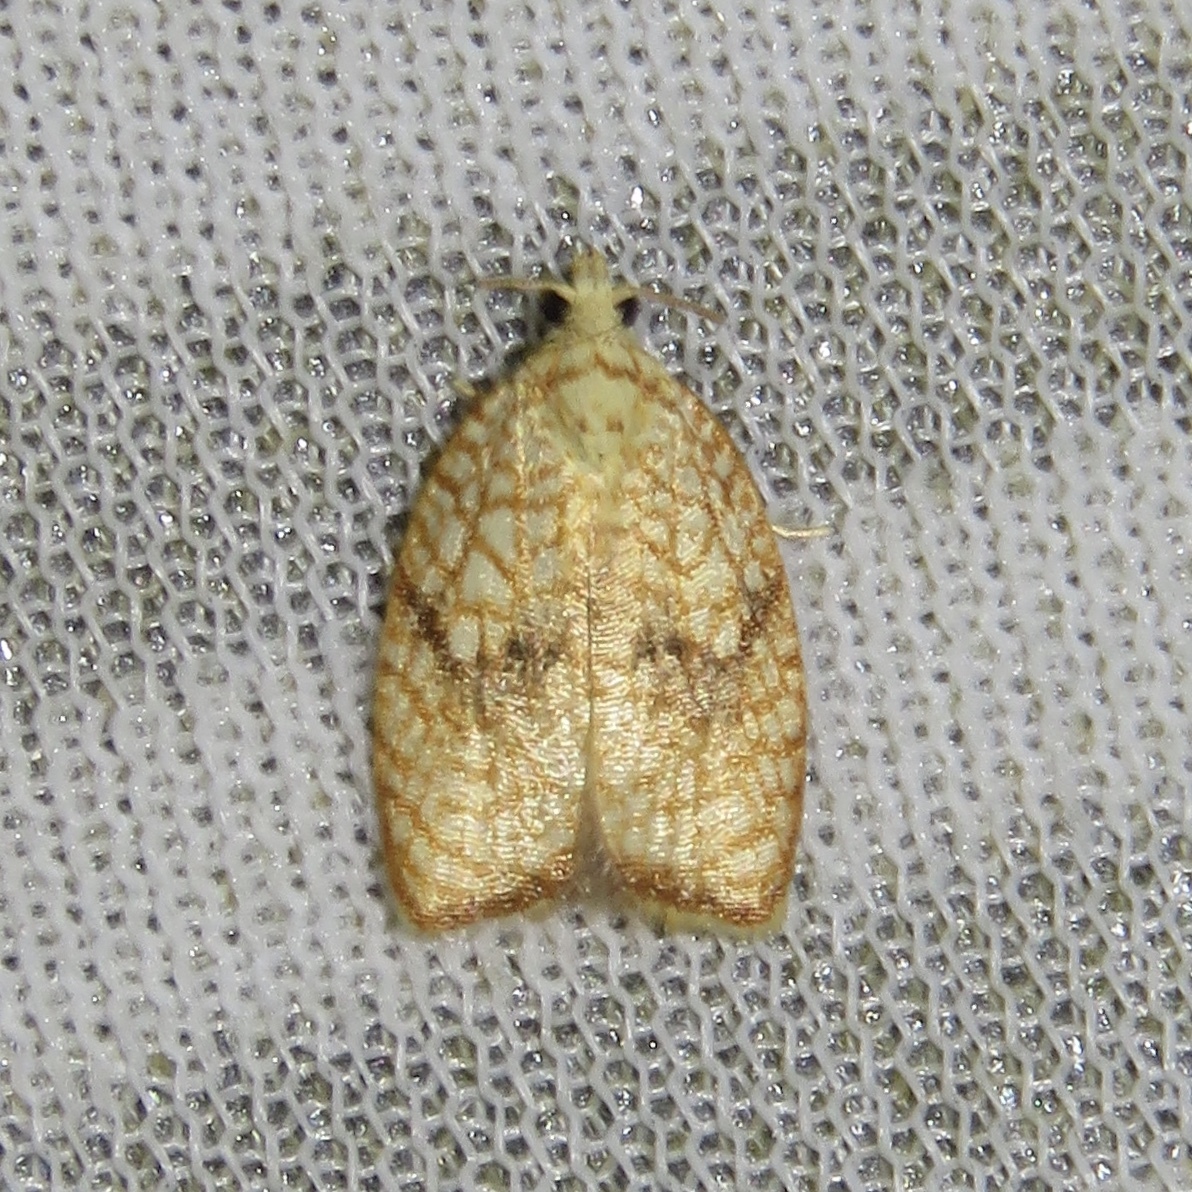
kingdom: Animalia
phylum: Arthropoda
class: Insecta
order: Lepidoptera
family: Tortricidae
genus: Acleris
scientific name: Acleris forsskaleana
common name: Maple button
